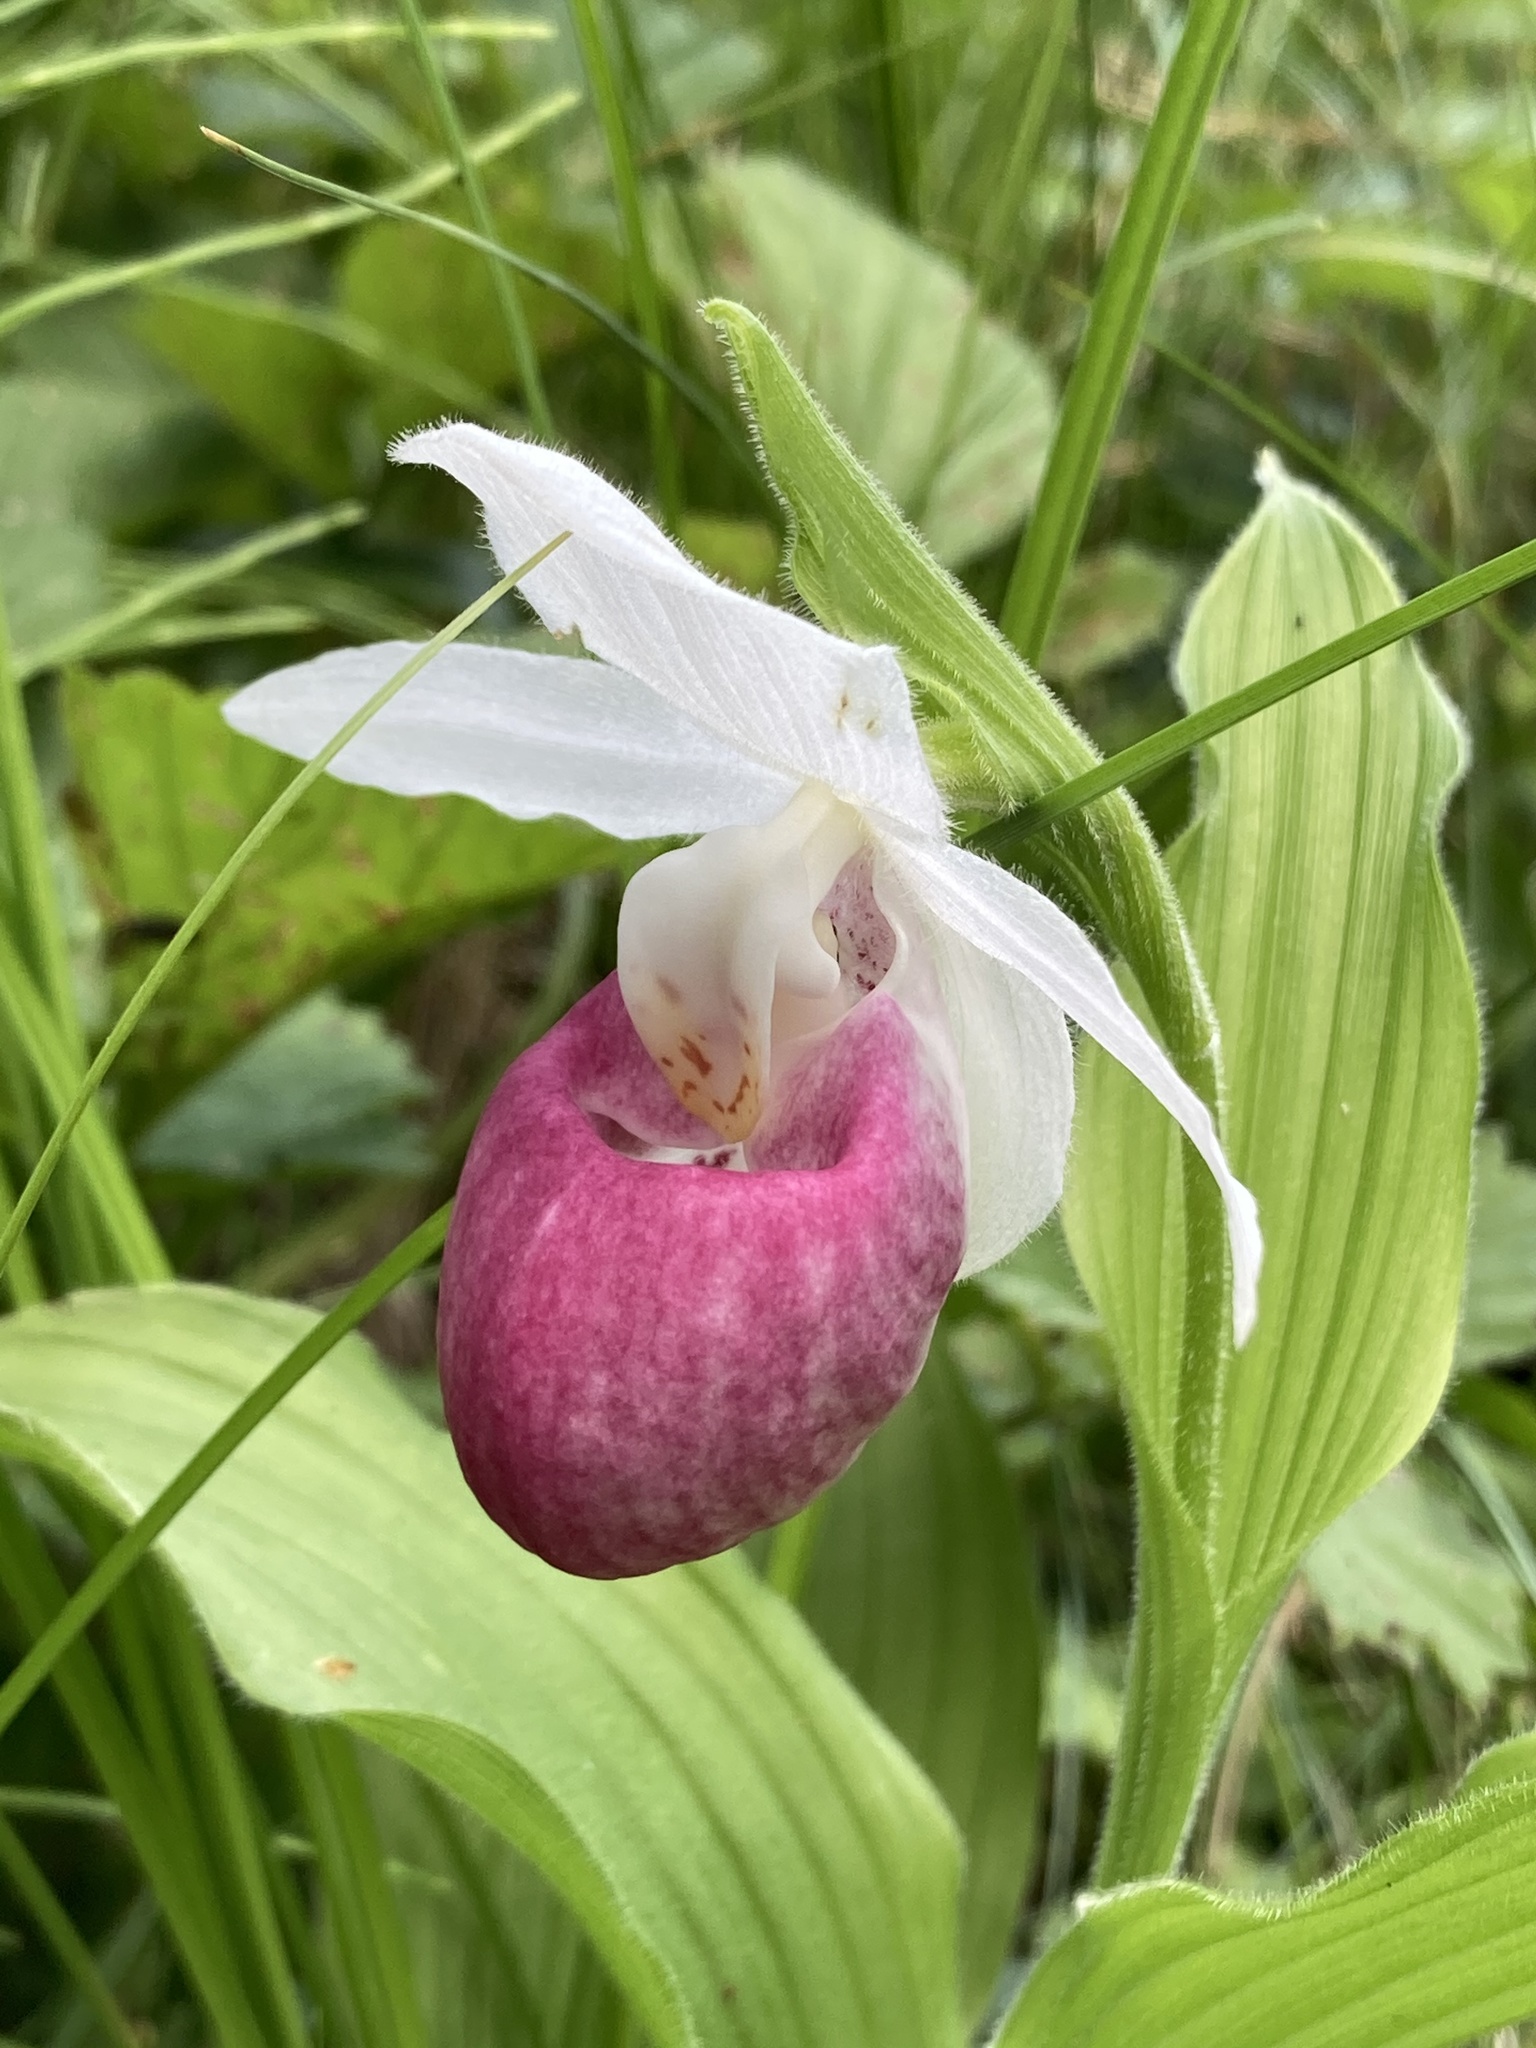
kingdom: Plantae
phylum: Tracheophyta
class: Liliopsida
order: Asparagales
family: Orchidaceae
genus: Cypripedium
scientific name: Cypripedium reginae
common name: Queen lady's-slipper
